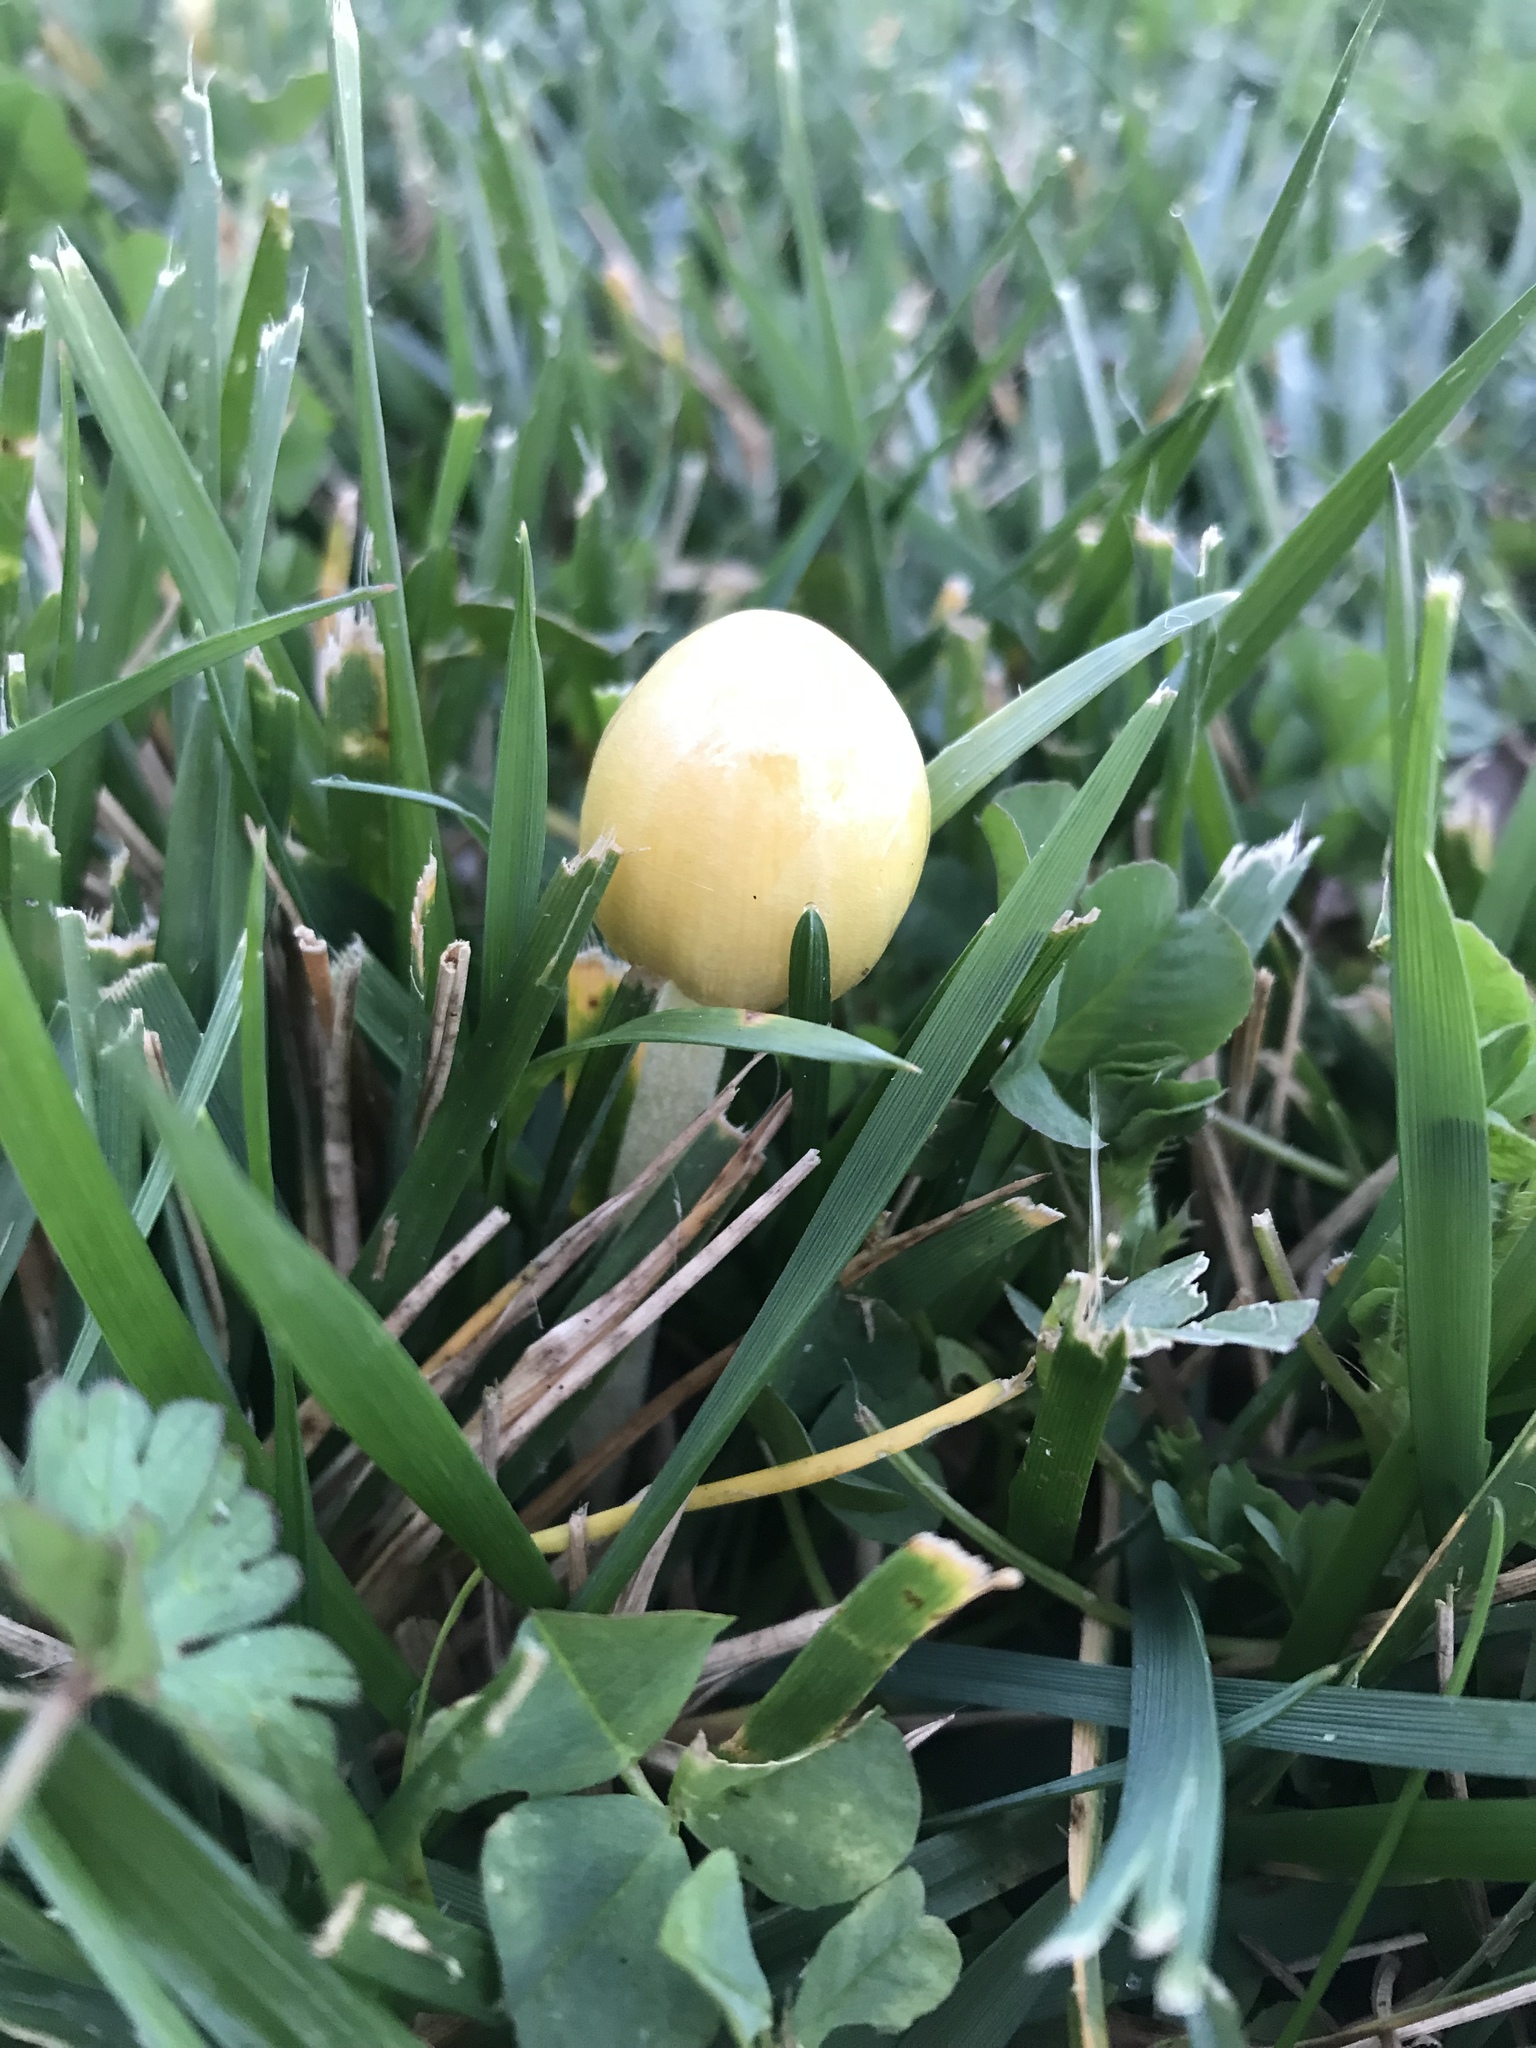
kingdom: Fungi
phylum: Basidiomycota
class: Agaricomycetes
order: Agaricales
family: Bolbitiaceae
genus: Bolbitius
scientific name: Bolbitius titubans
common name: Yellow fieldcap
